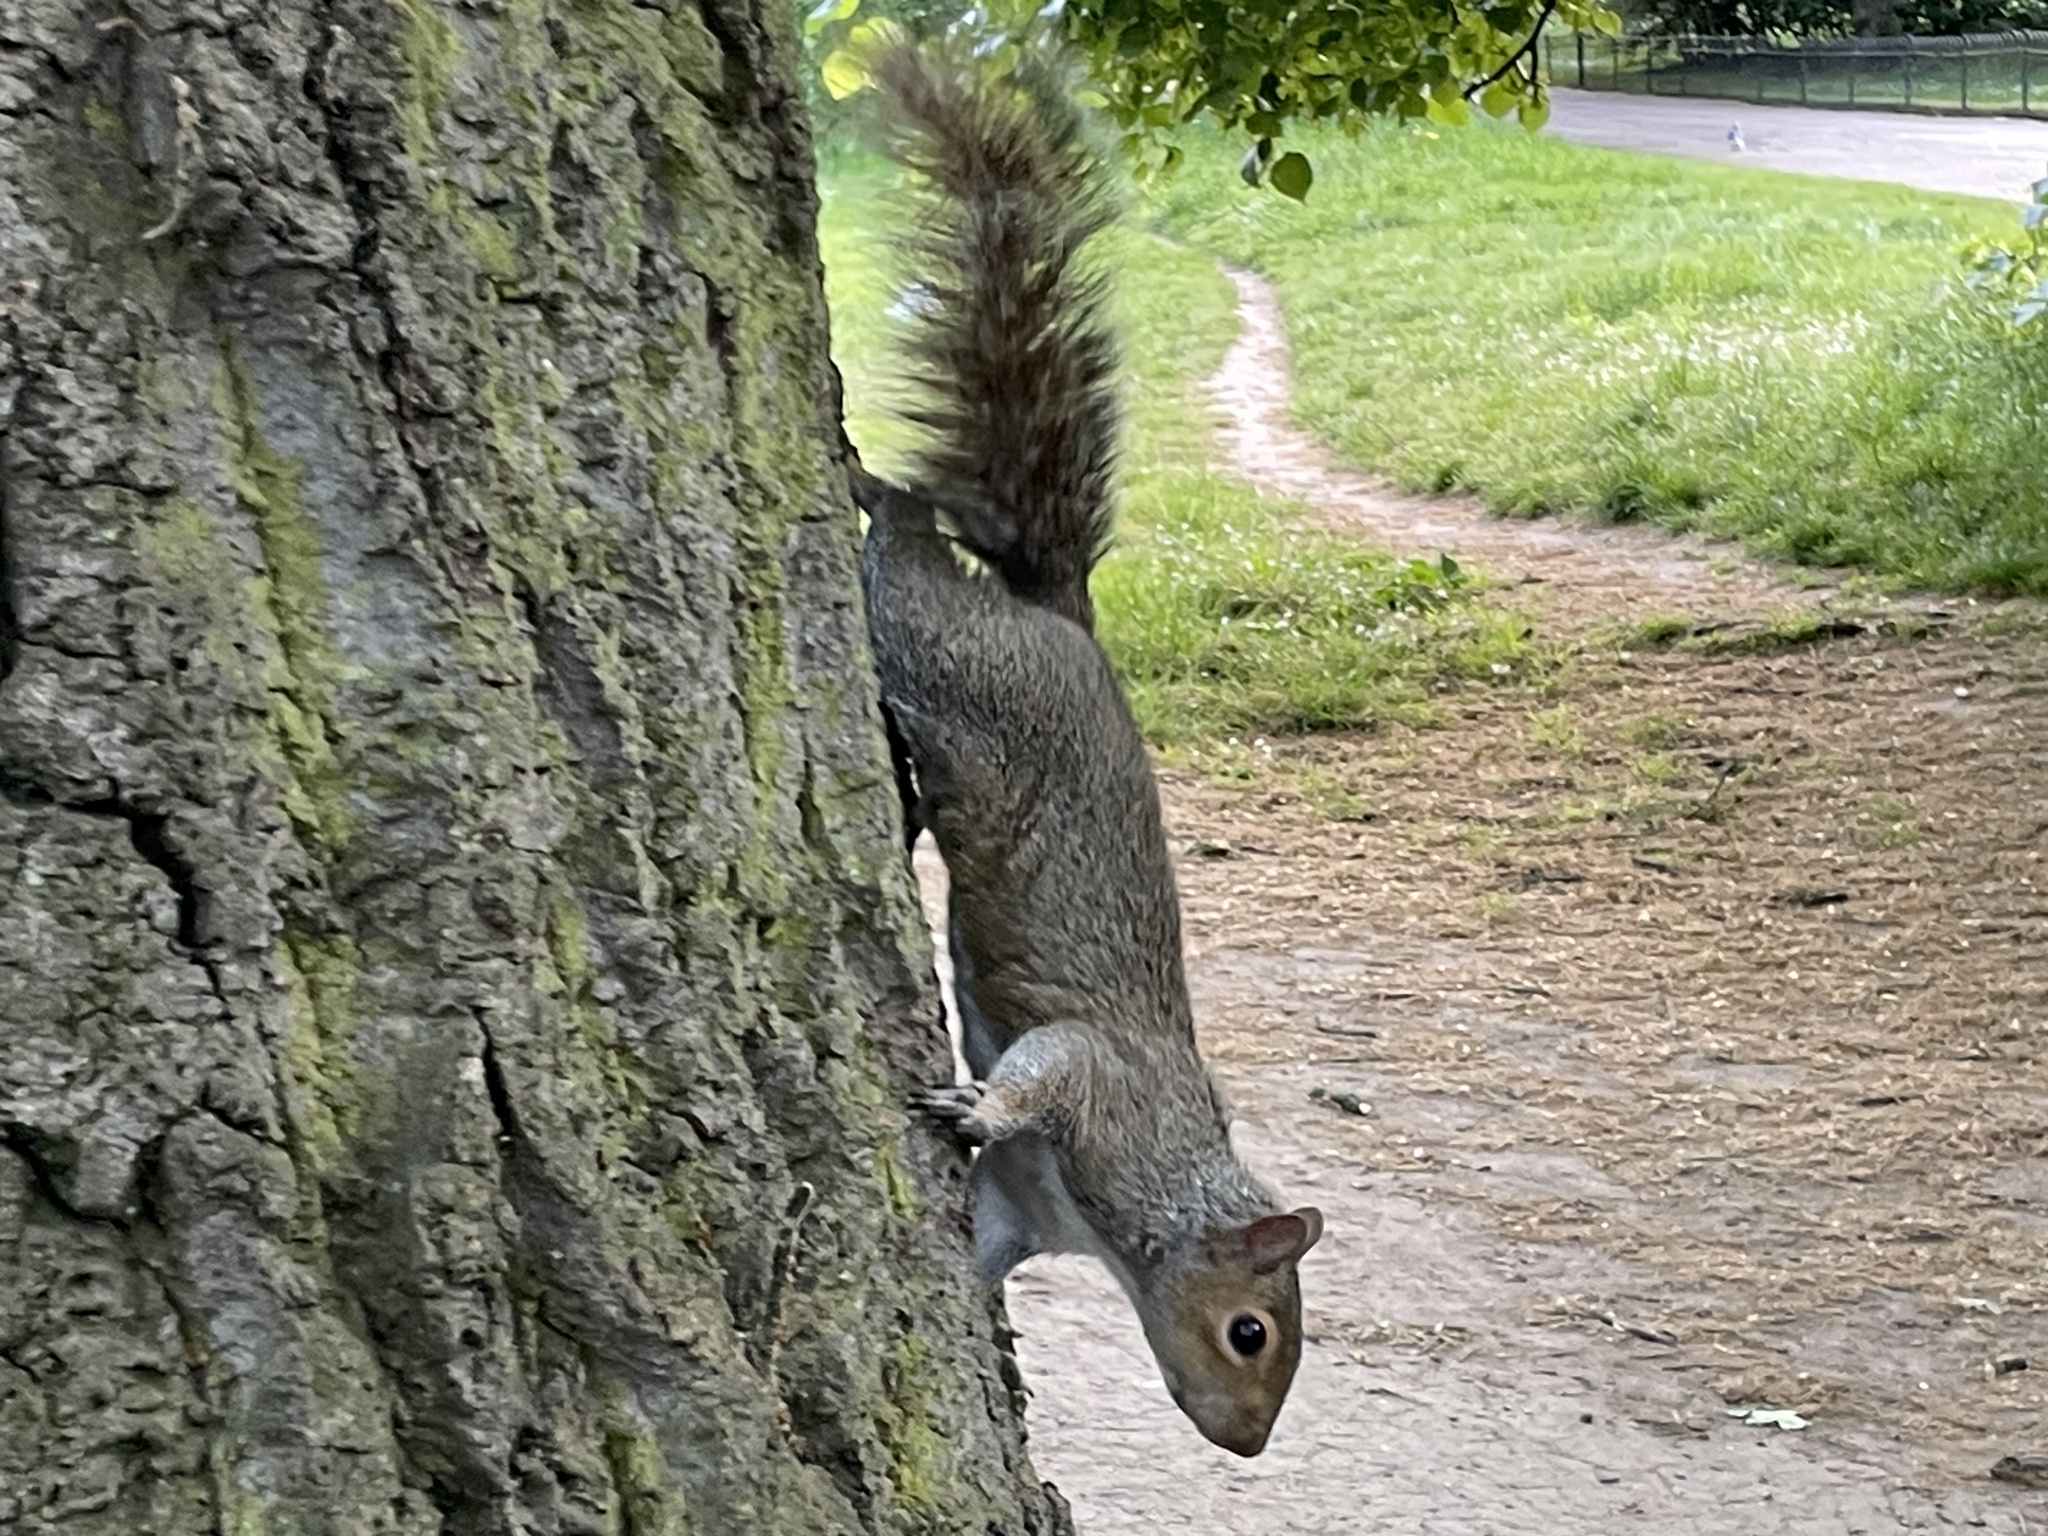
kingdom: Animalia
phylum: Chordata
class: Mammalia
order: Rodentia
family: Sciuridae
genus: Sciurus
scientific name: Sciurus carolinensis
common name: Eastern gray squirrel
